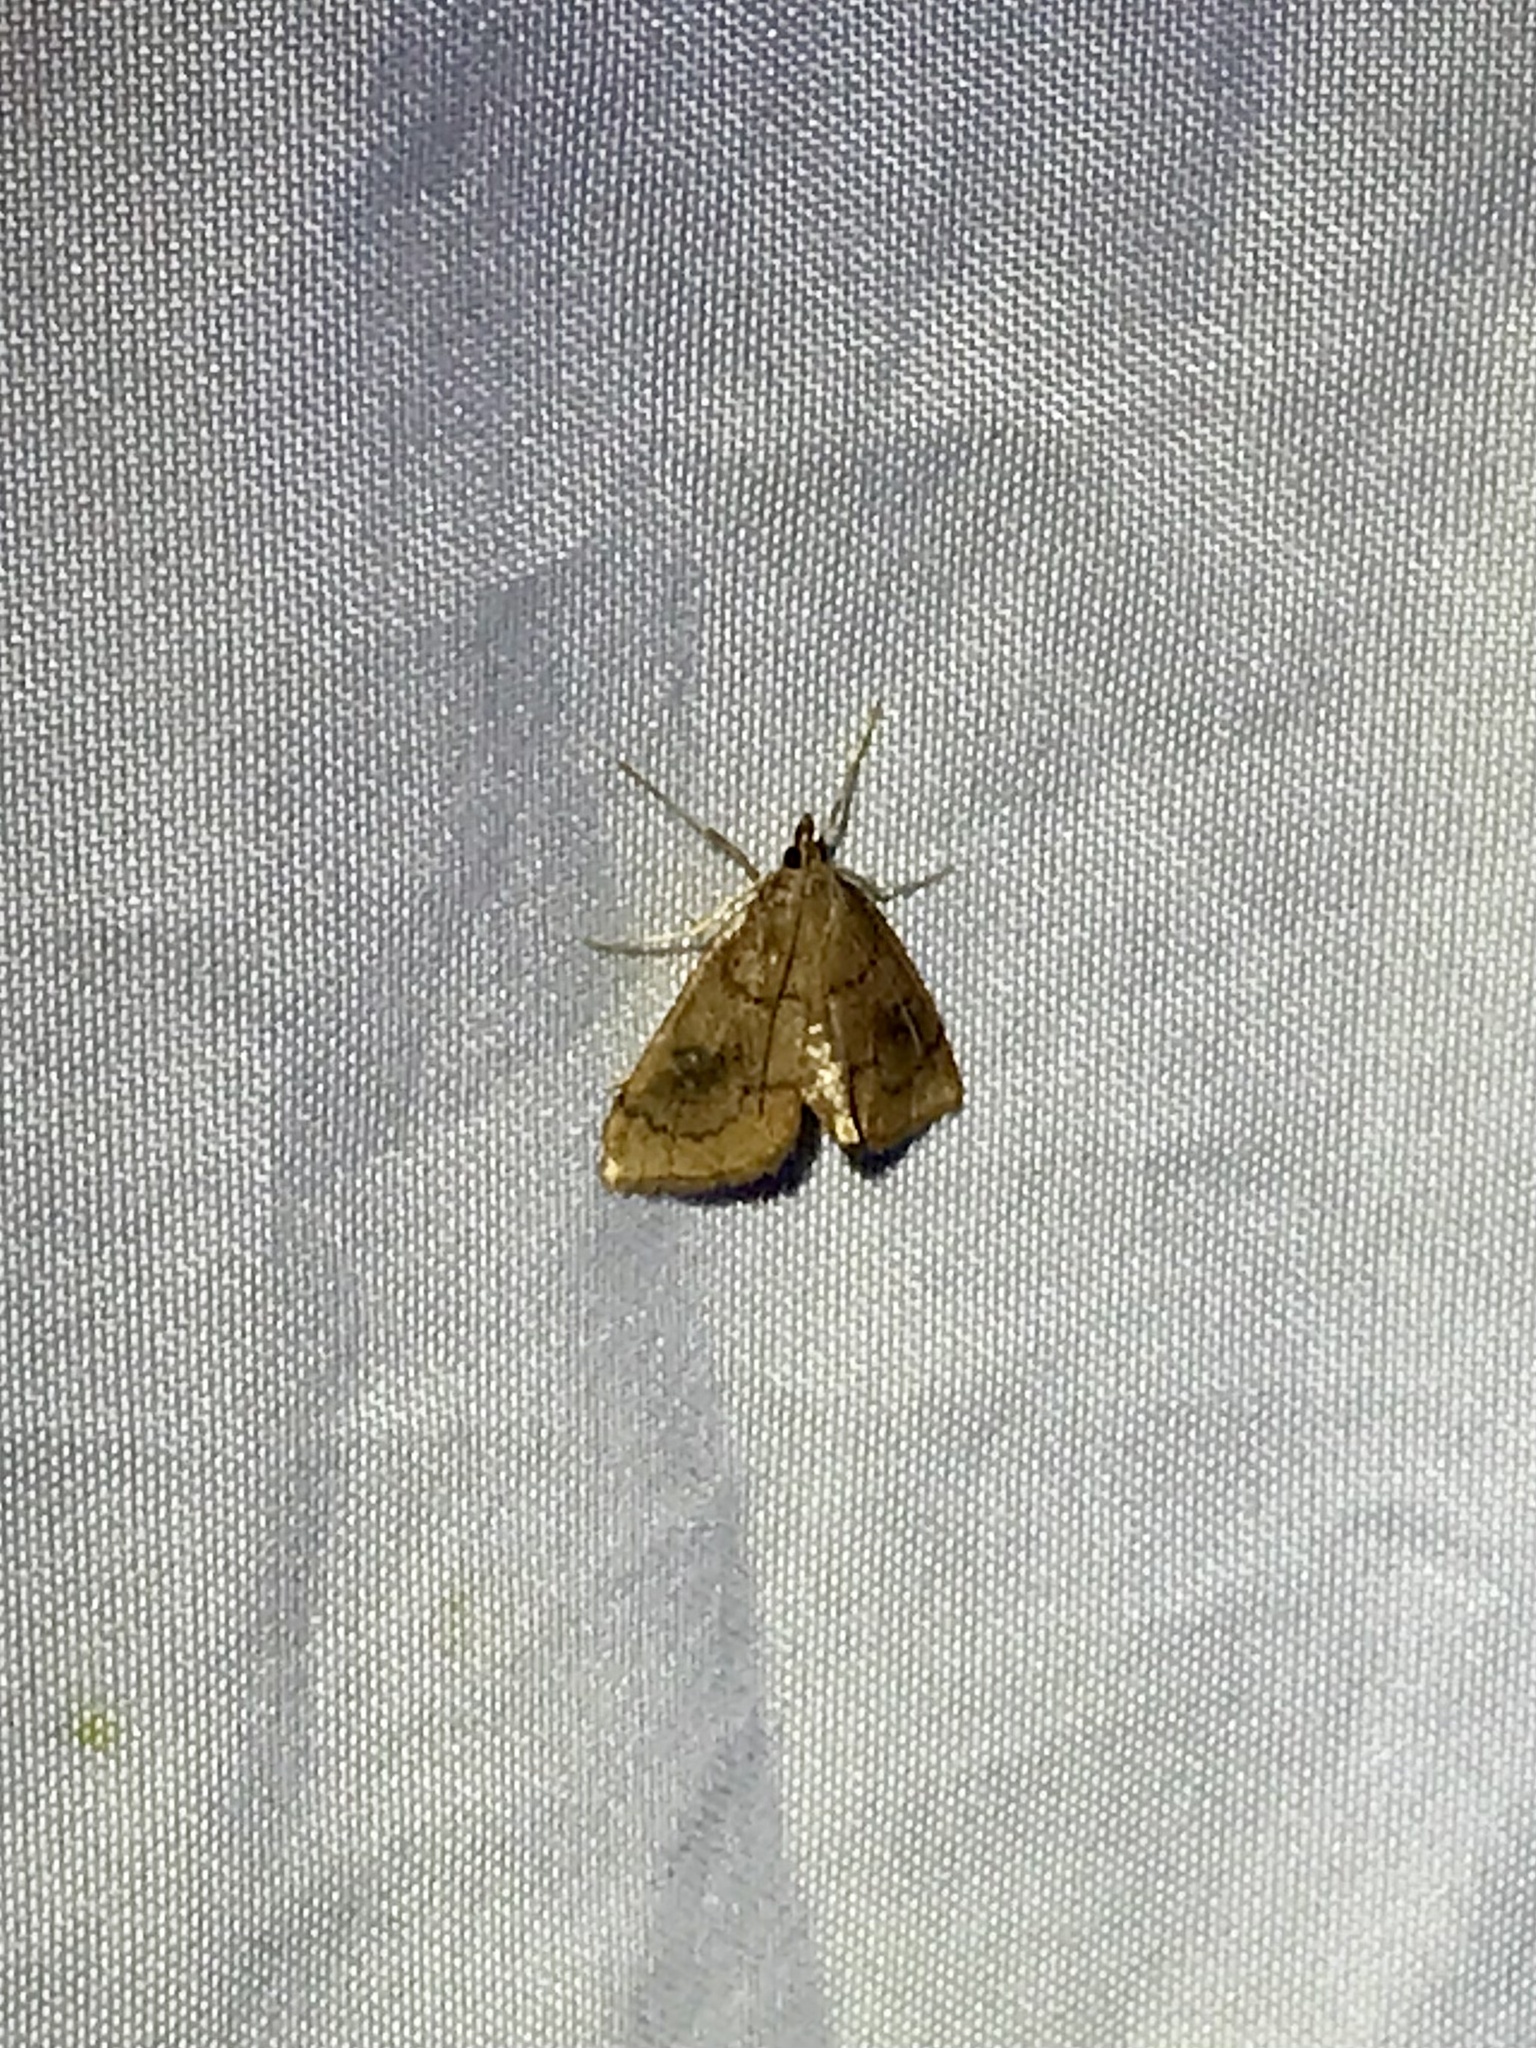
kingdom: Animalia
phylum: Arthropoda
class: Insecta
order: Lepidoptera
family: Crambidae
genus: Fumibotys
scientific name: Fumibotys fumalis
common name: Mint root borer moth
